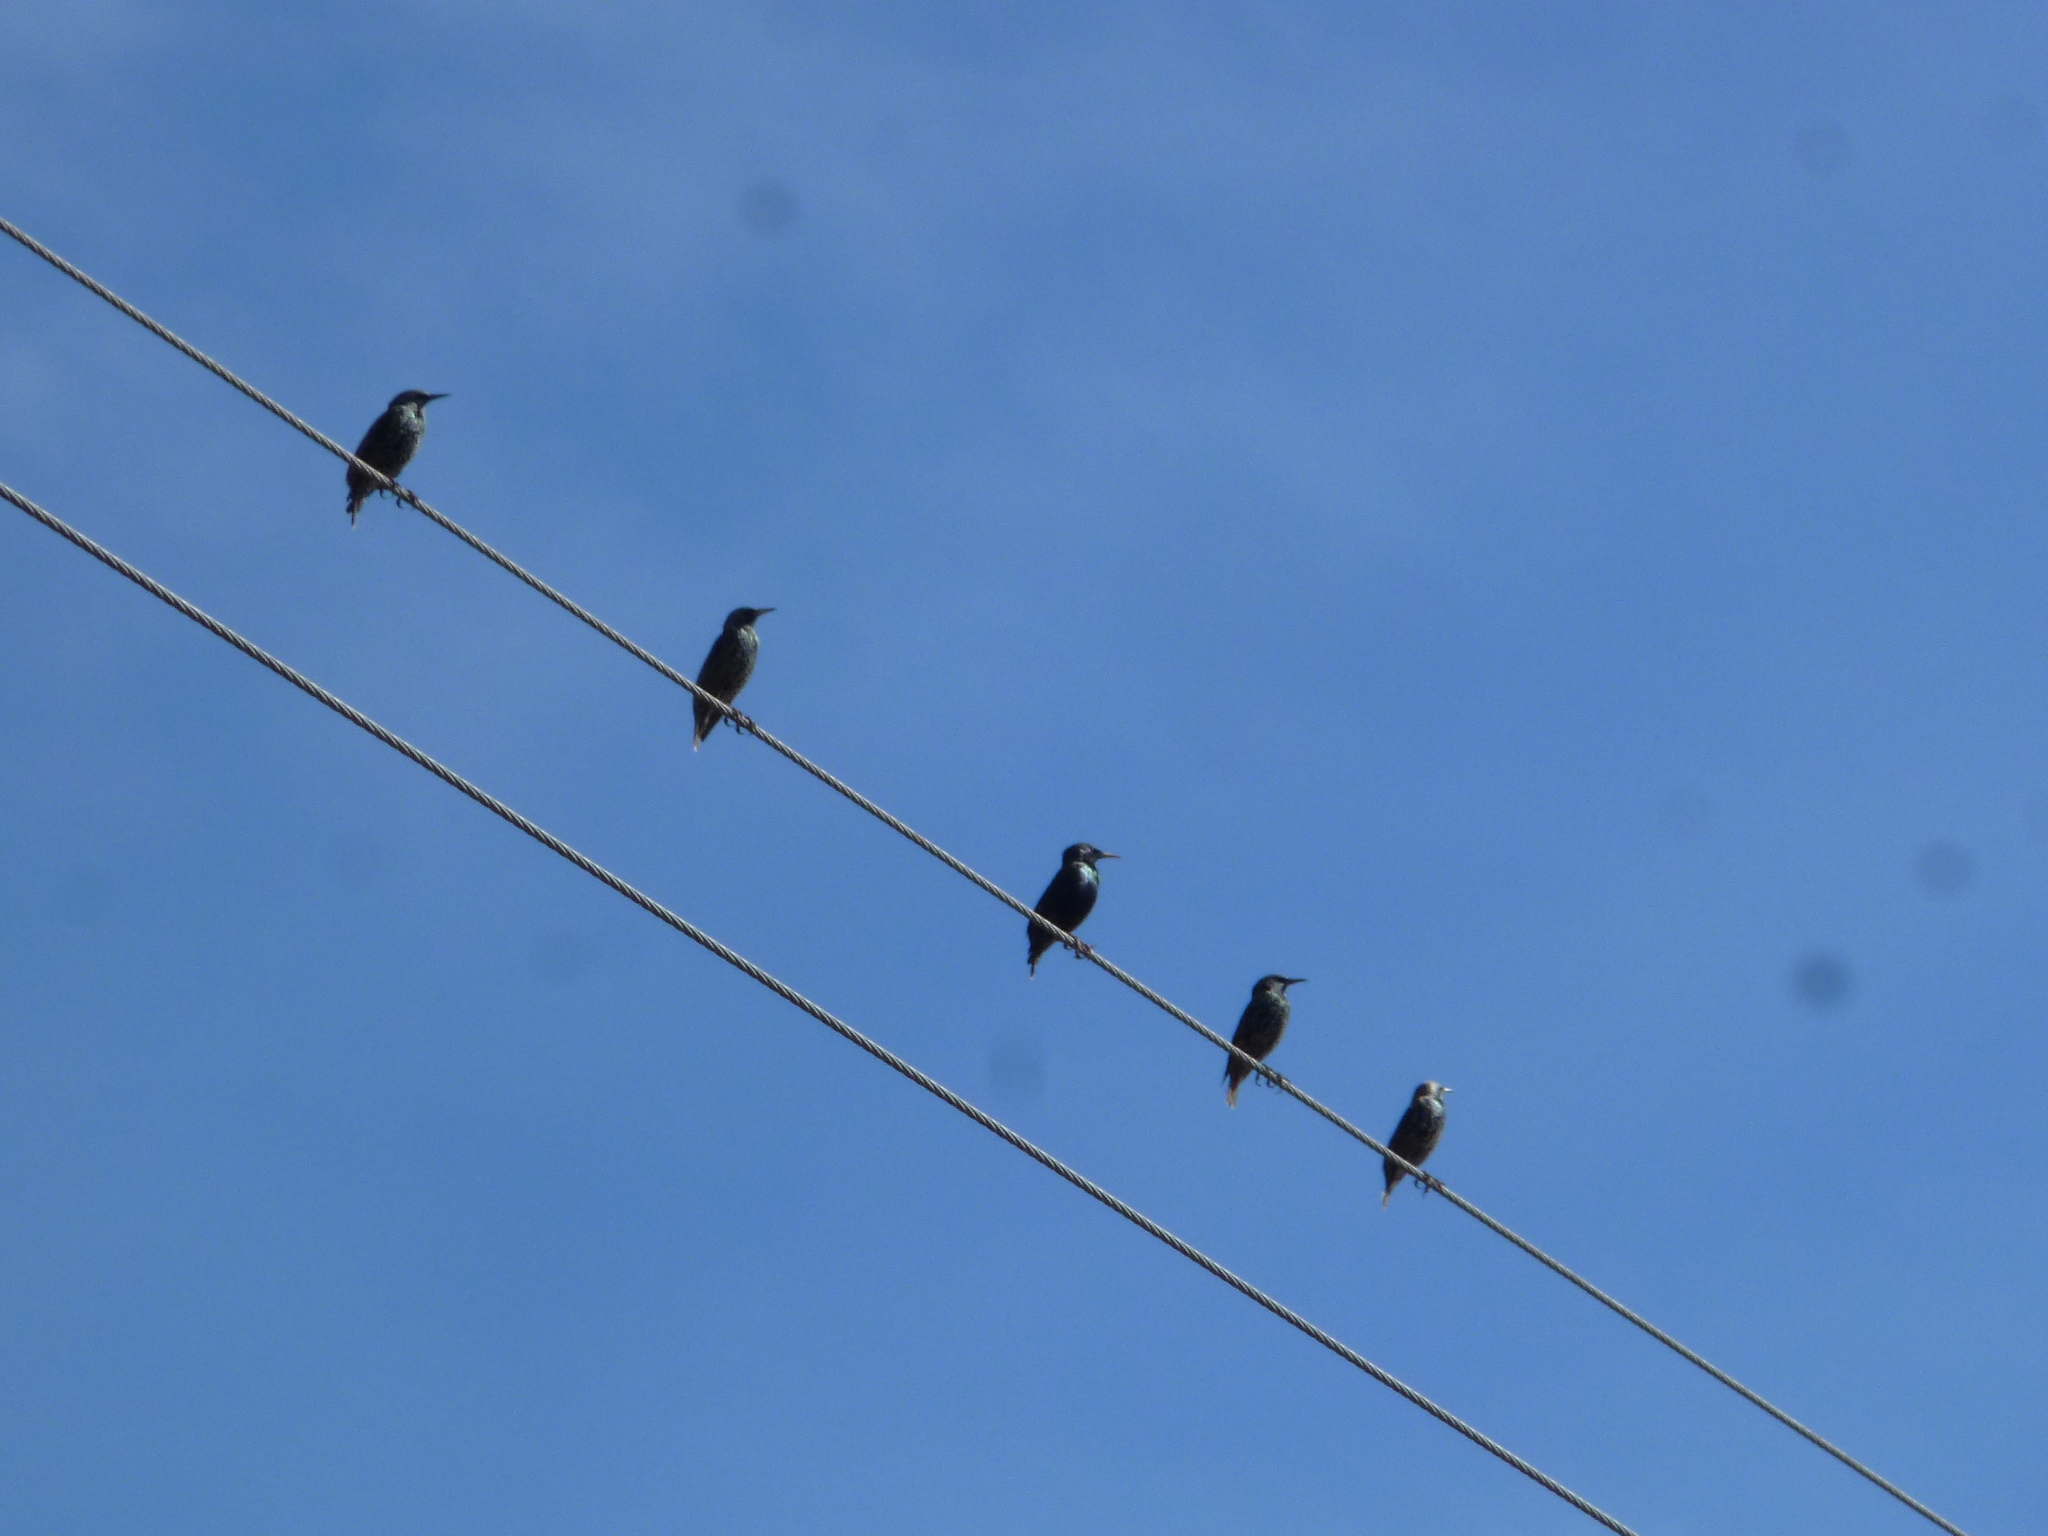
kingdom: Animalia
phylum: Chordata
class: Aves
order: Passeriformes
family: Sturnidae
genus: Sturnus
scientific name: Sturnus vulgaris
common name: Common starling
